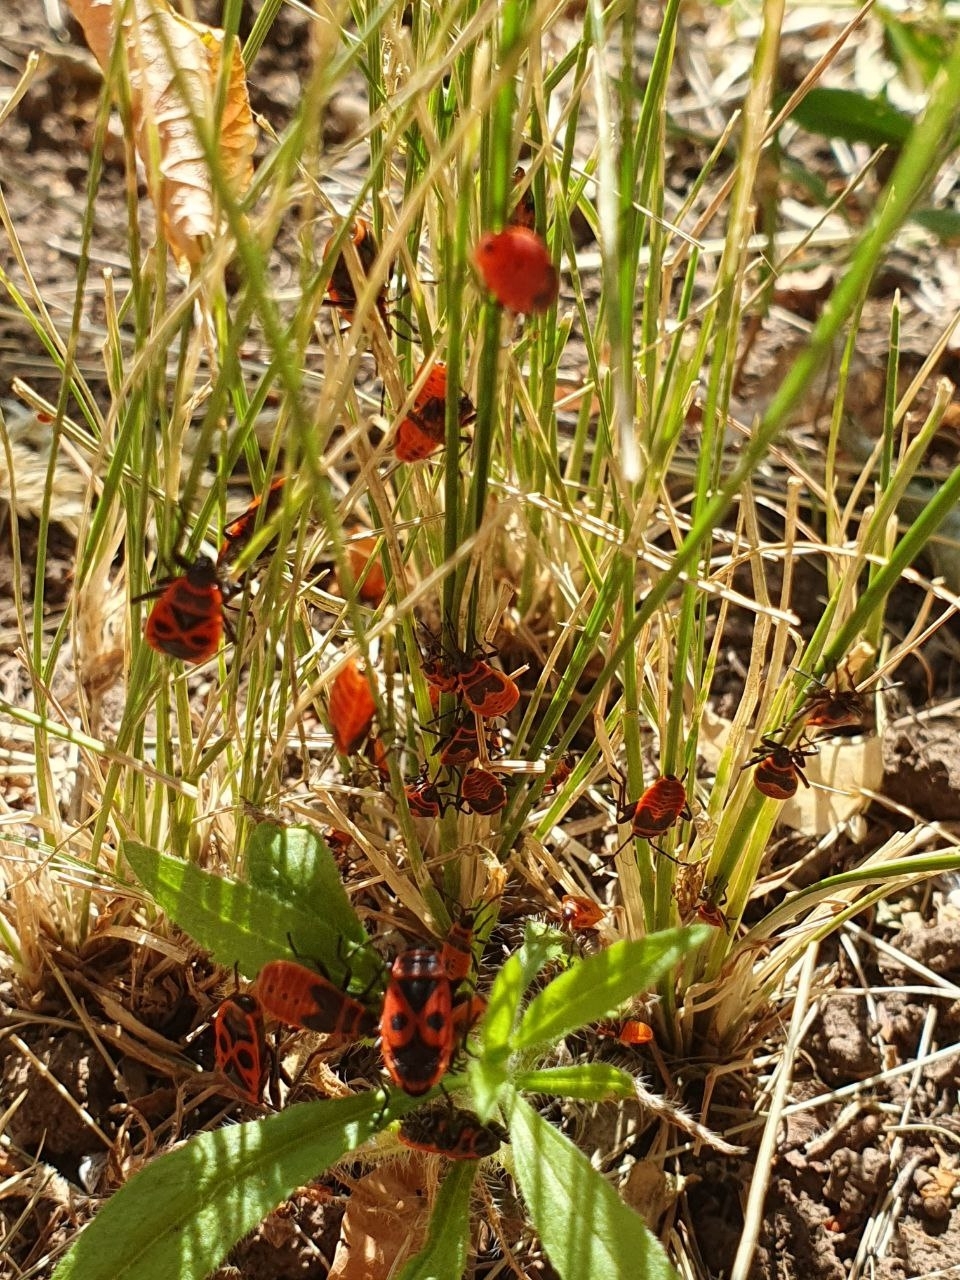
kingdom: Animalia
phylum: Arthropoda
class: Insecta
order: Hemiptera
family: Pyrrhocoridae
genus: Pyrrhocoris
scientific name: Pyrrhocoris apterus
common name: Firebug
